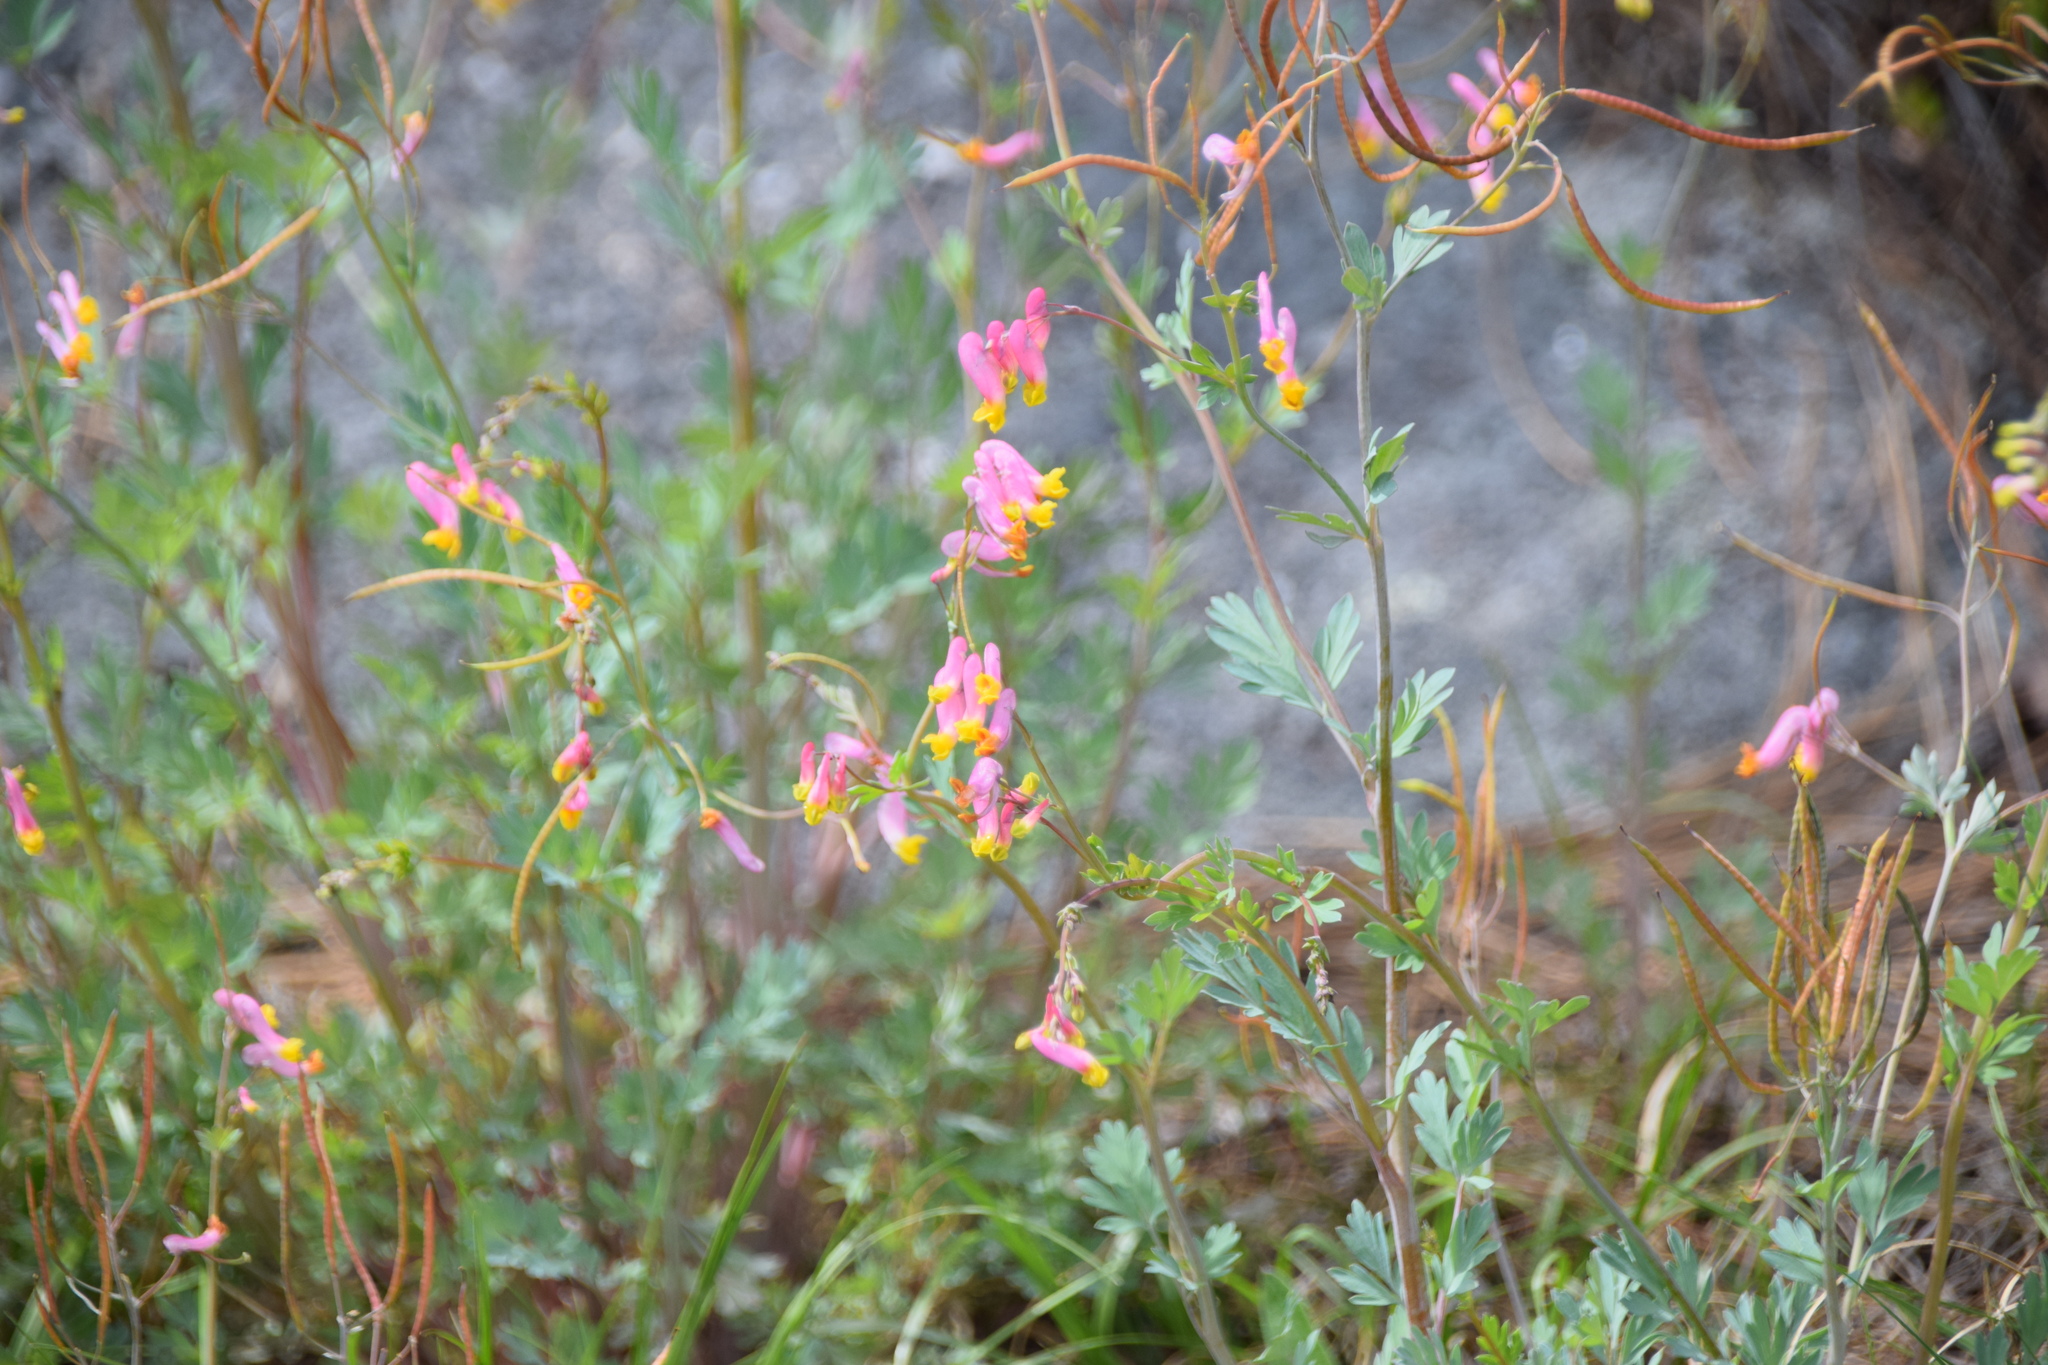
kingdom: Plantae
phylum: Tracheophyta
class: Magnoliopsida
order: Ranunculales
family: Papaveraceae
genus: Capnoides
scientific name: Capnoides sempervirens
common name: Rock harlequin
